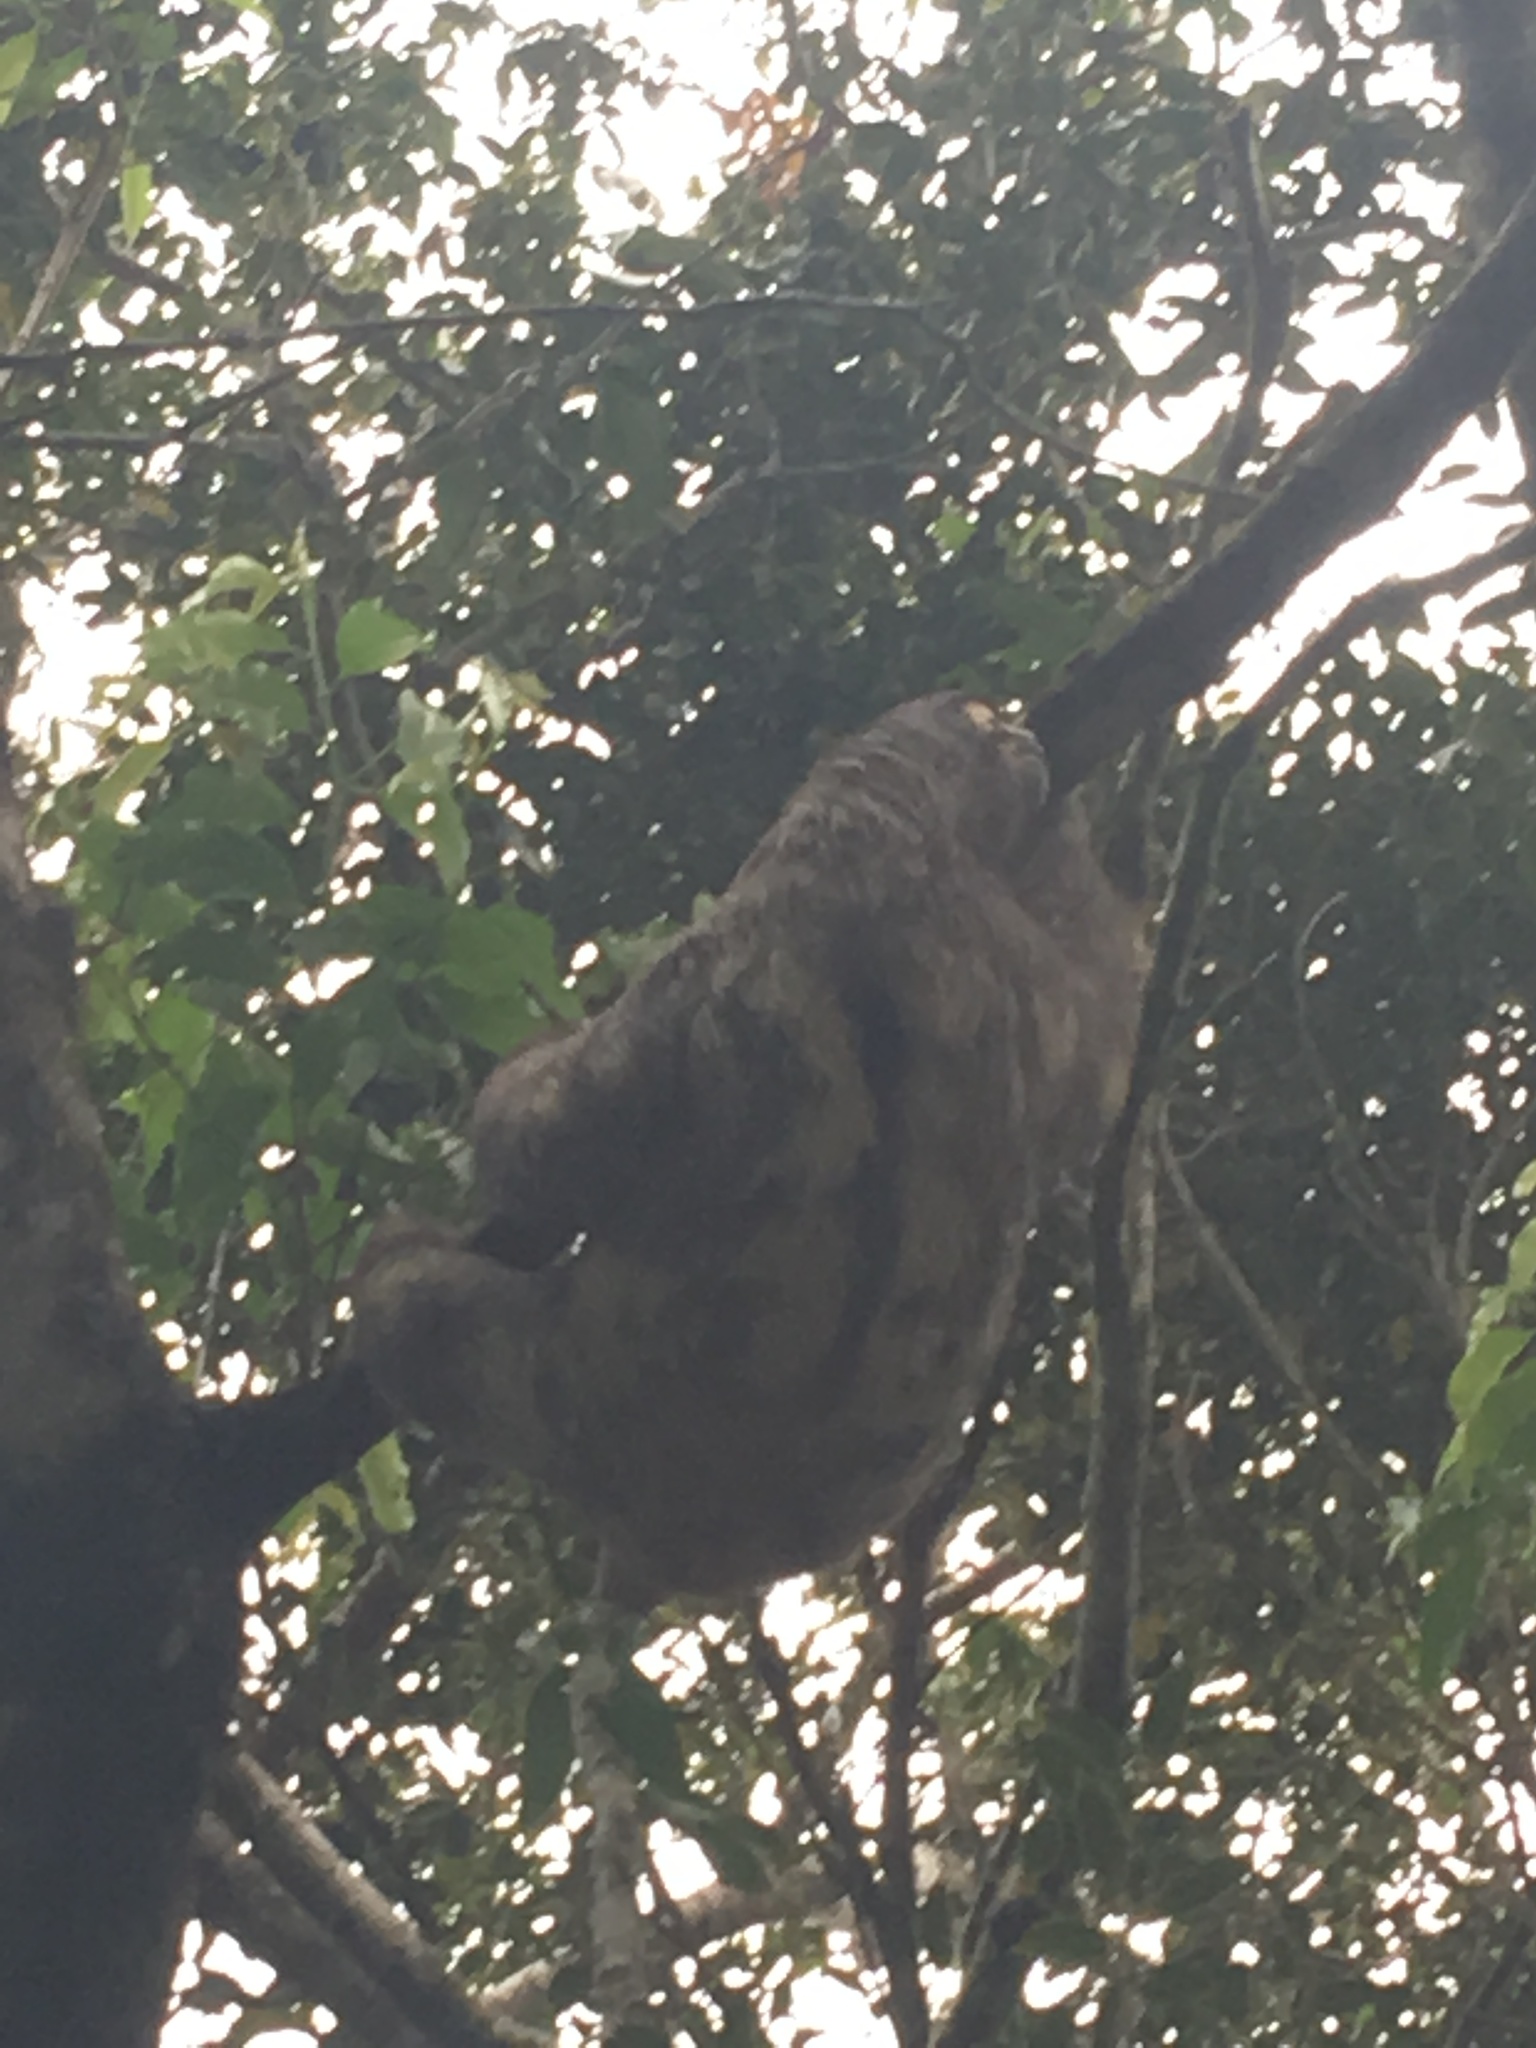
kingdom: Animalia
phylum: Chordata
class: Mammalia
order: Pilosa
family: Bradypodidae
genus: Bradypus
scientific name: Bradypus variegatus
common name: Brown-throated three-toed sloth
